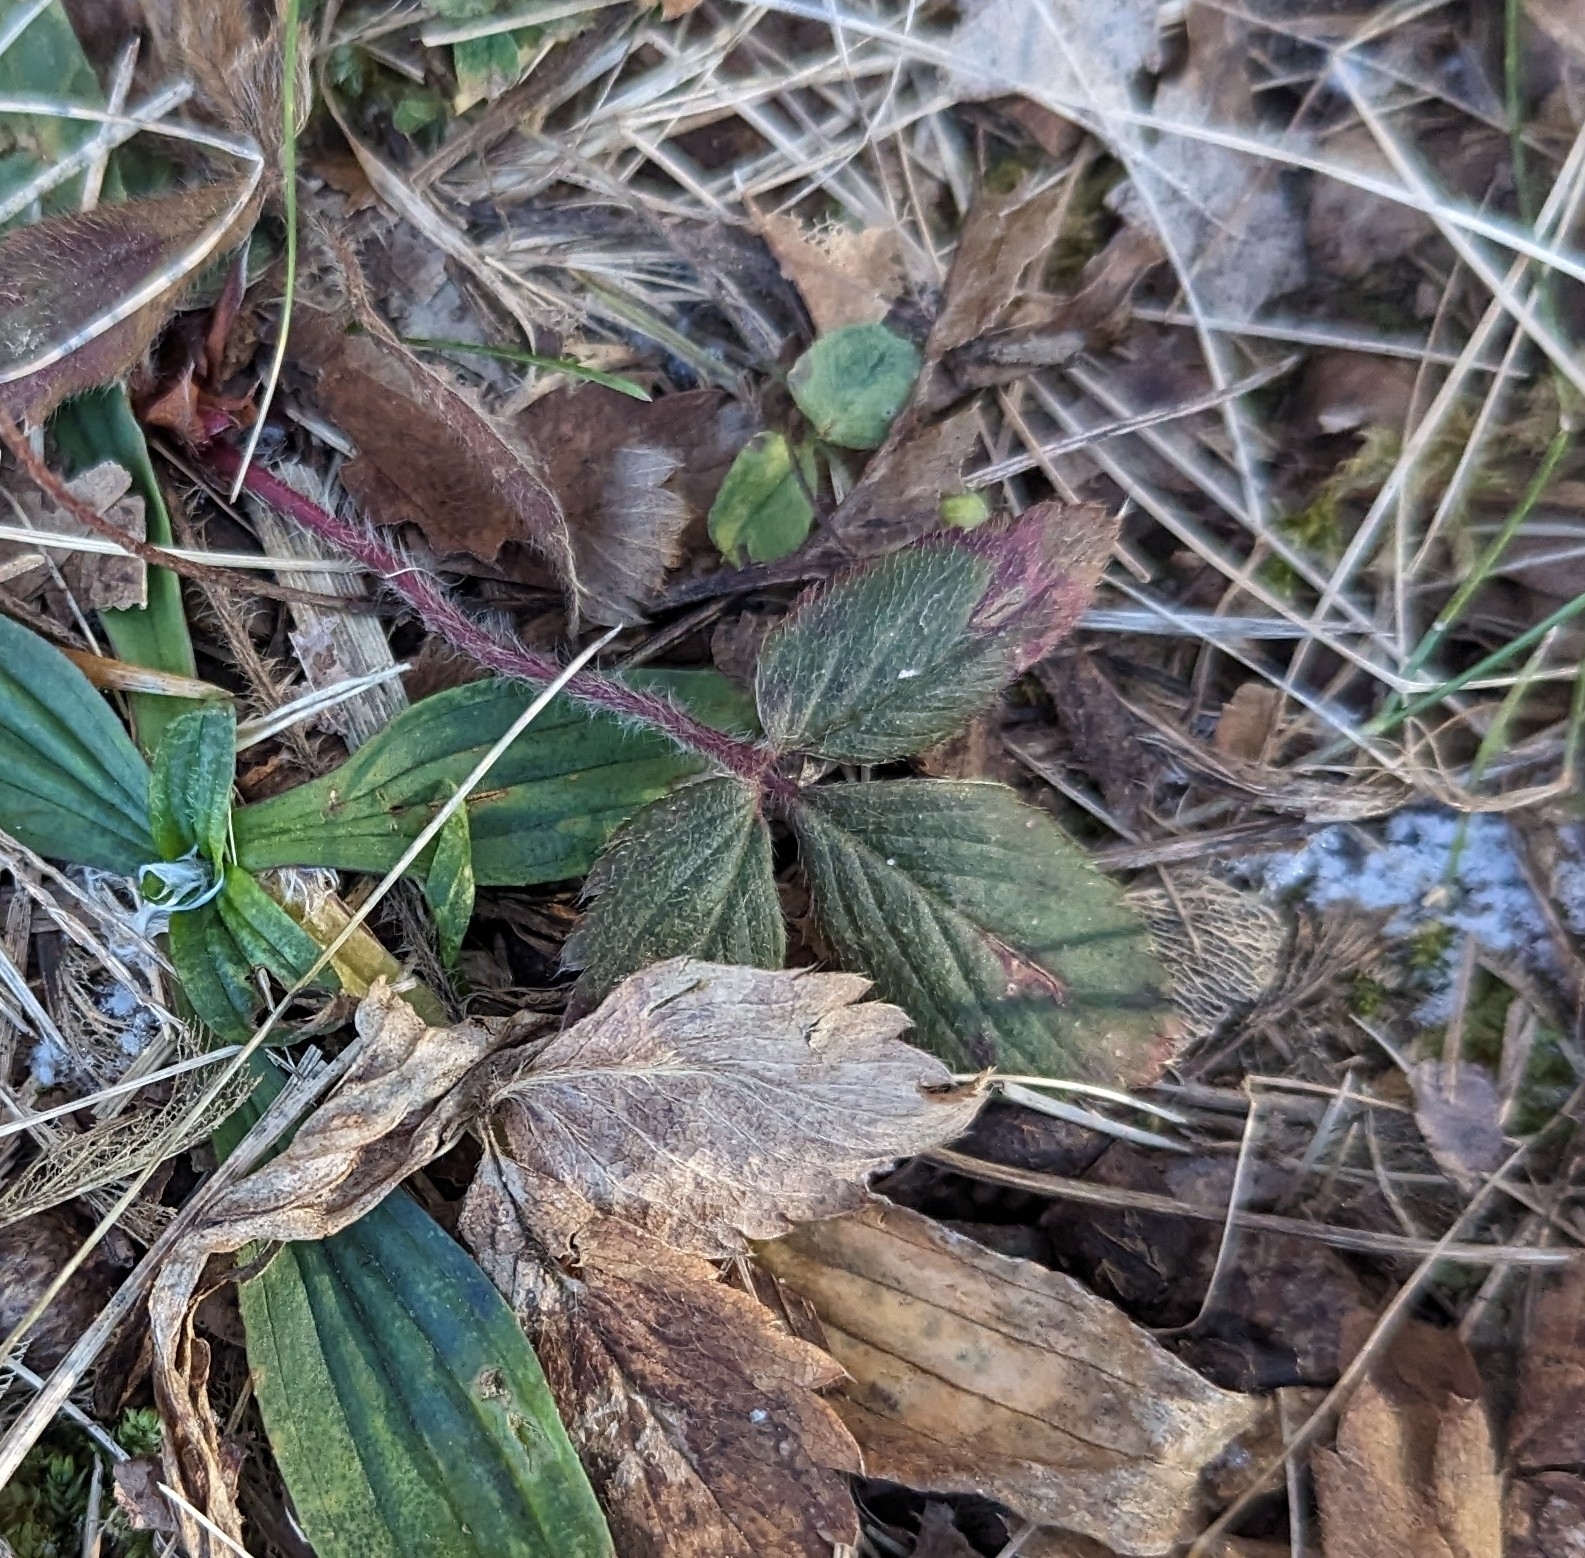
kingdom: Plantae
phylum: Tracheophyta
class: Magnoliopsida
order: Rosales
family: Rosaceae
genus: Fragaria
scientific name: Fragaria virginiana
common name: Thickleaved wild strawberry
